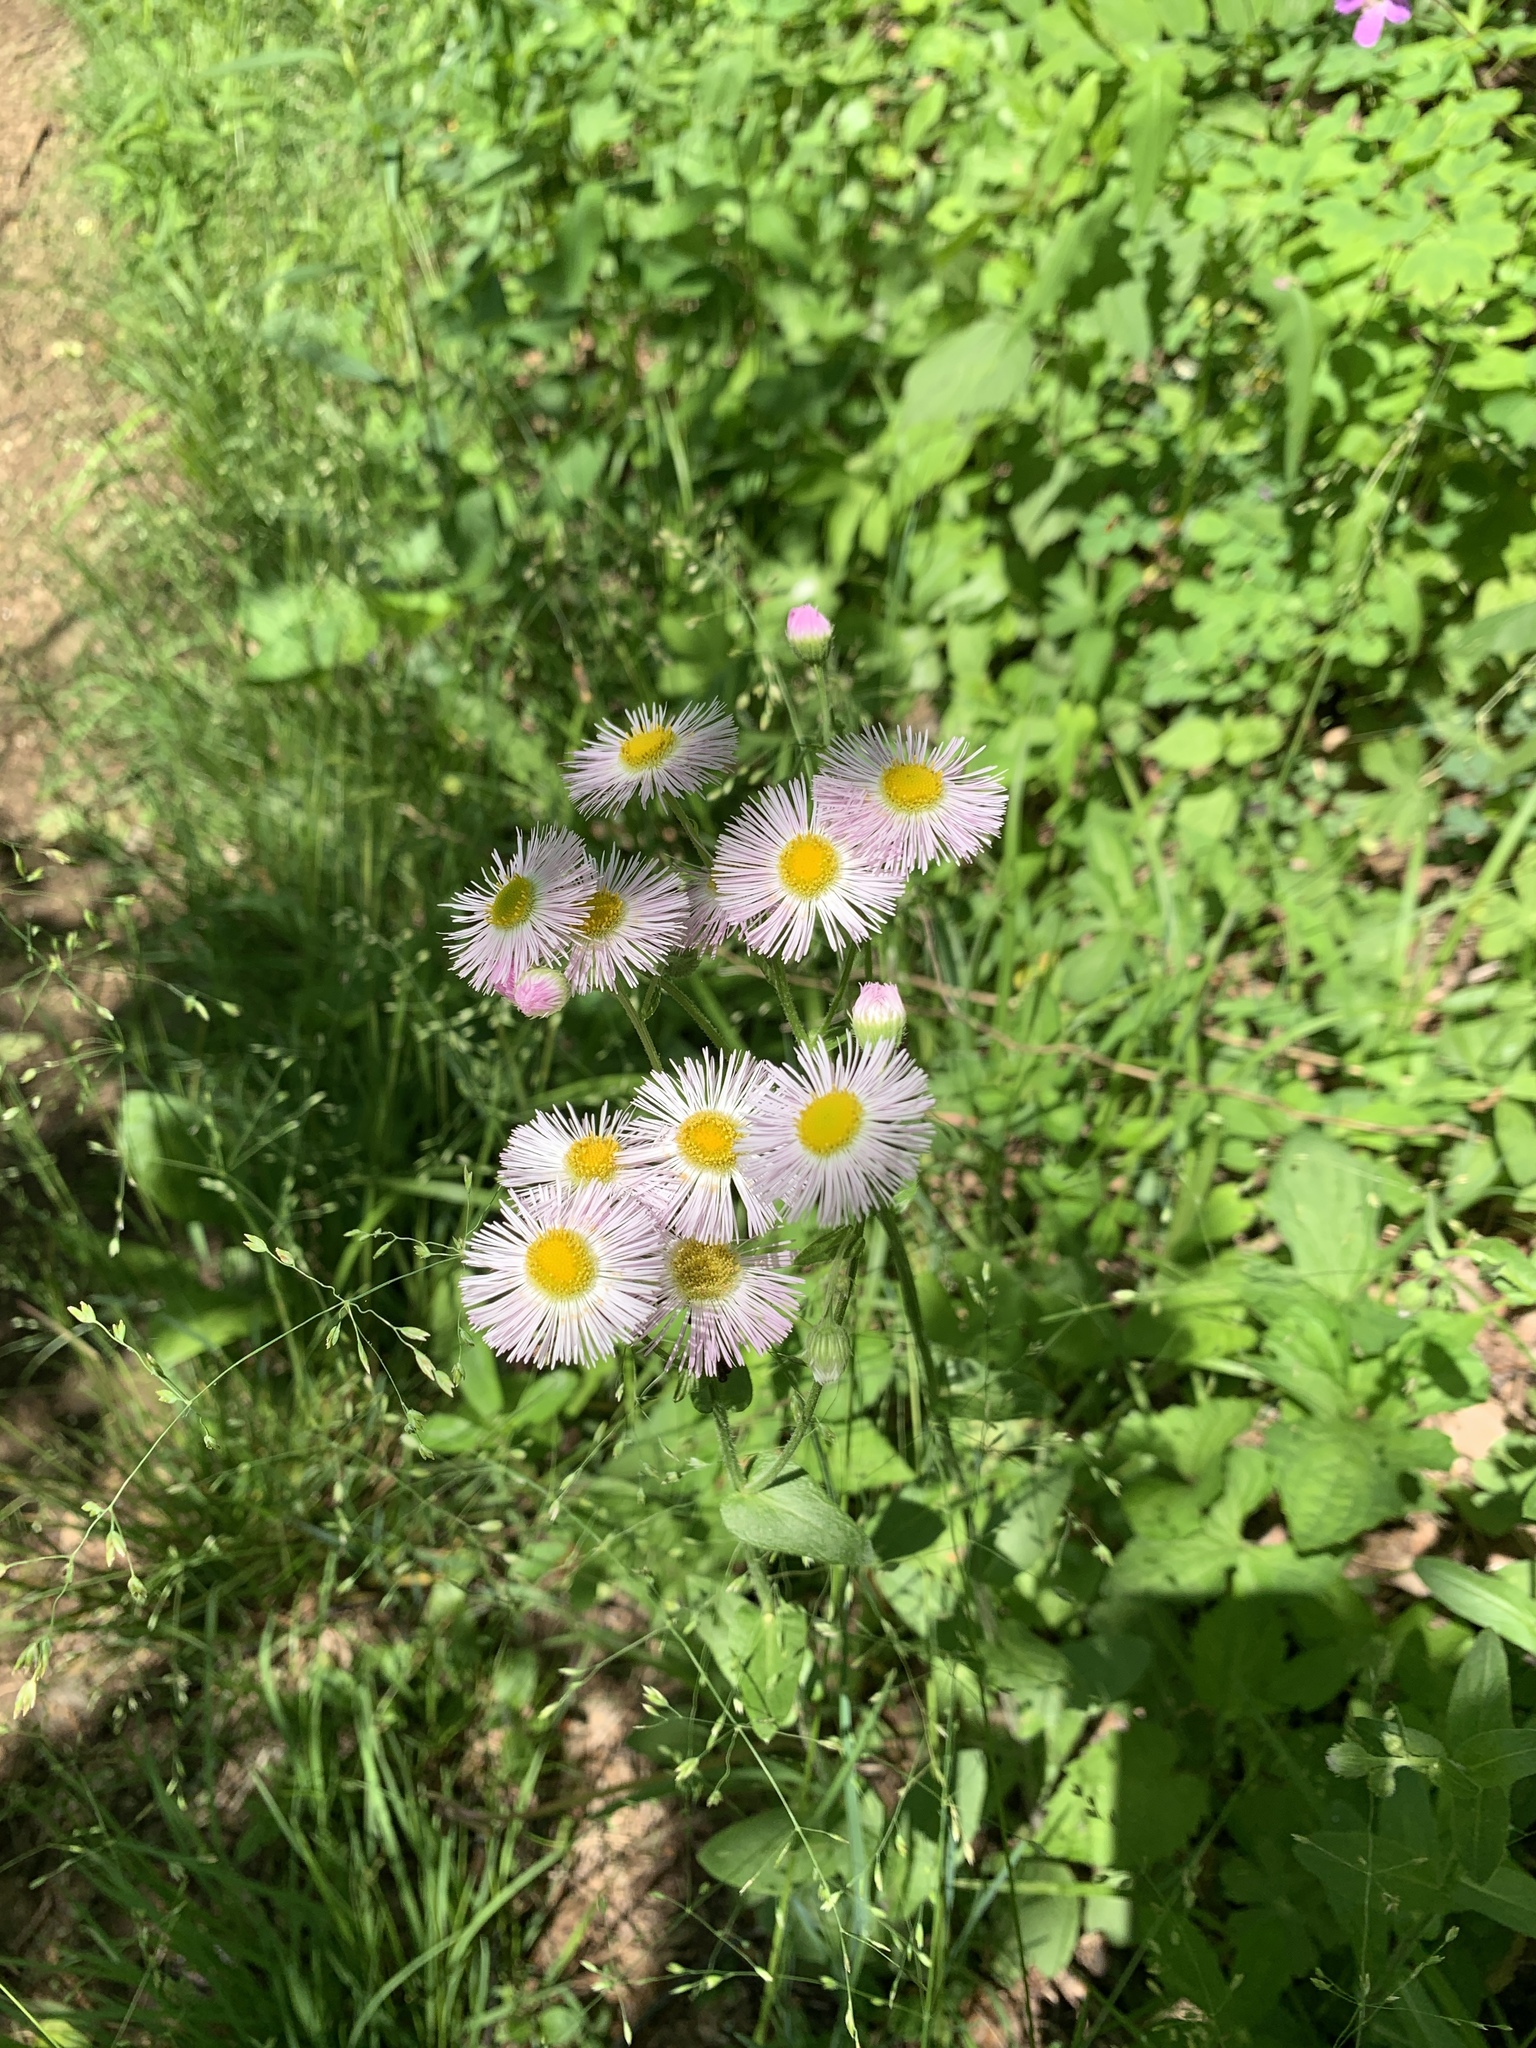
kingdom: Plantae
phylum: Tracheophyta
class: Magnoliopsida
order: Asterales
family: Asteraceae
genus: Erigeron
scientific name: Erigeron philadelphicus
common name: Robin's-plantain
